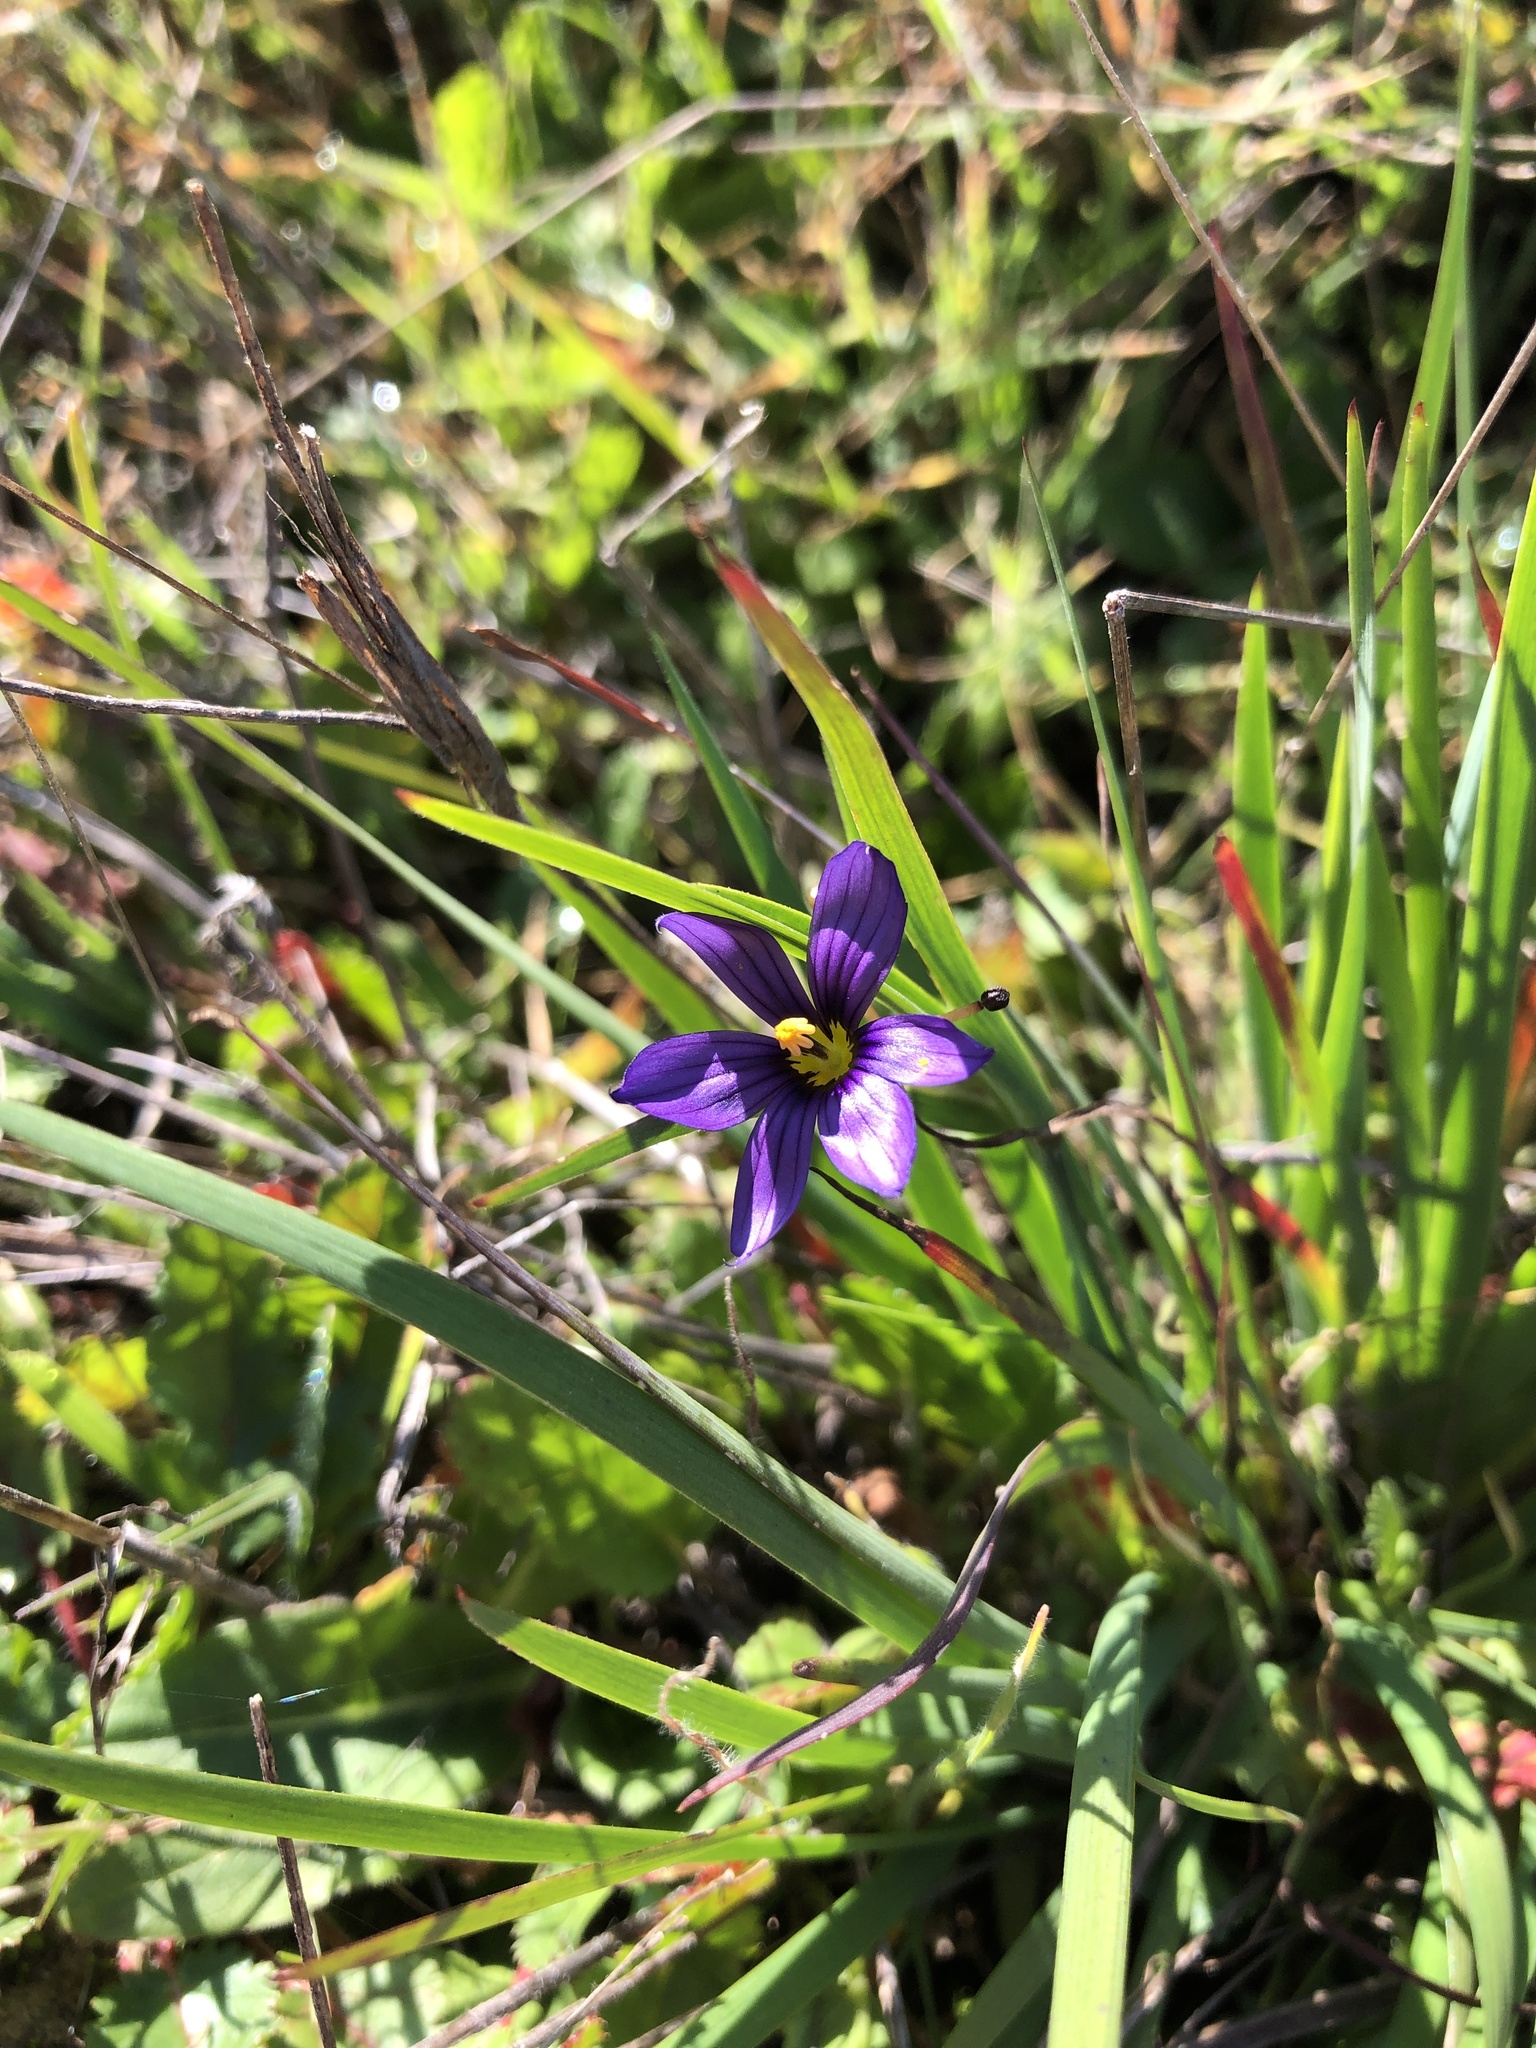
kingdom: Plantae
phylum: Tracheophyta
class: Liliopsida
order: Asparagales
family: Iridaceae
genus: Sisyrinchium
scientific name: Sisyrinchium bellum
